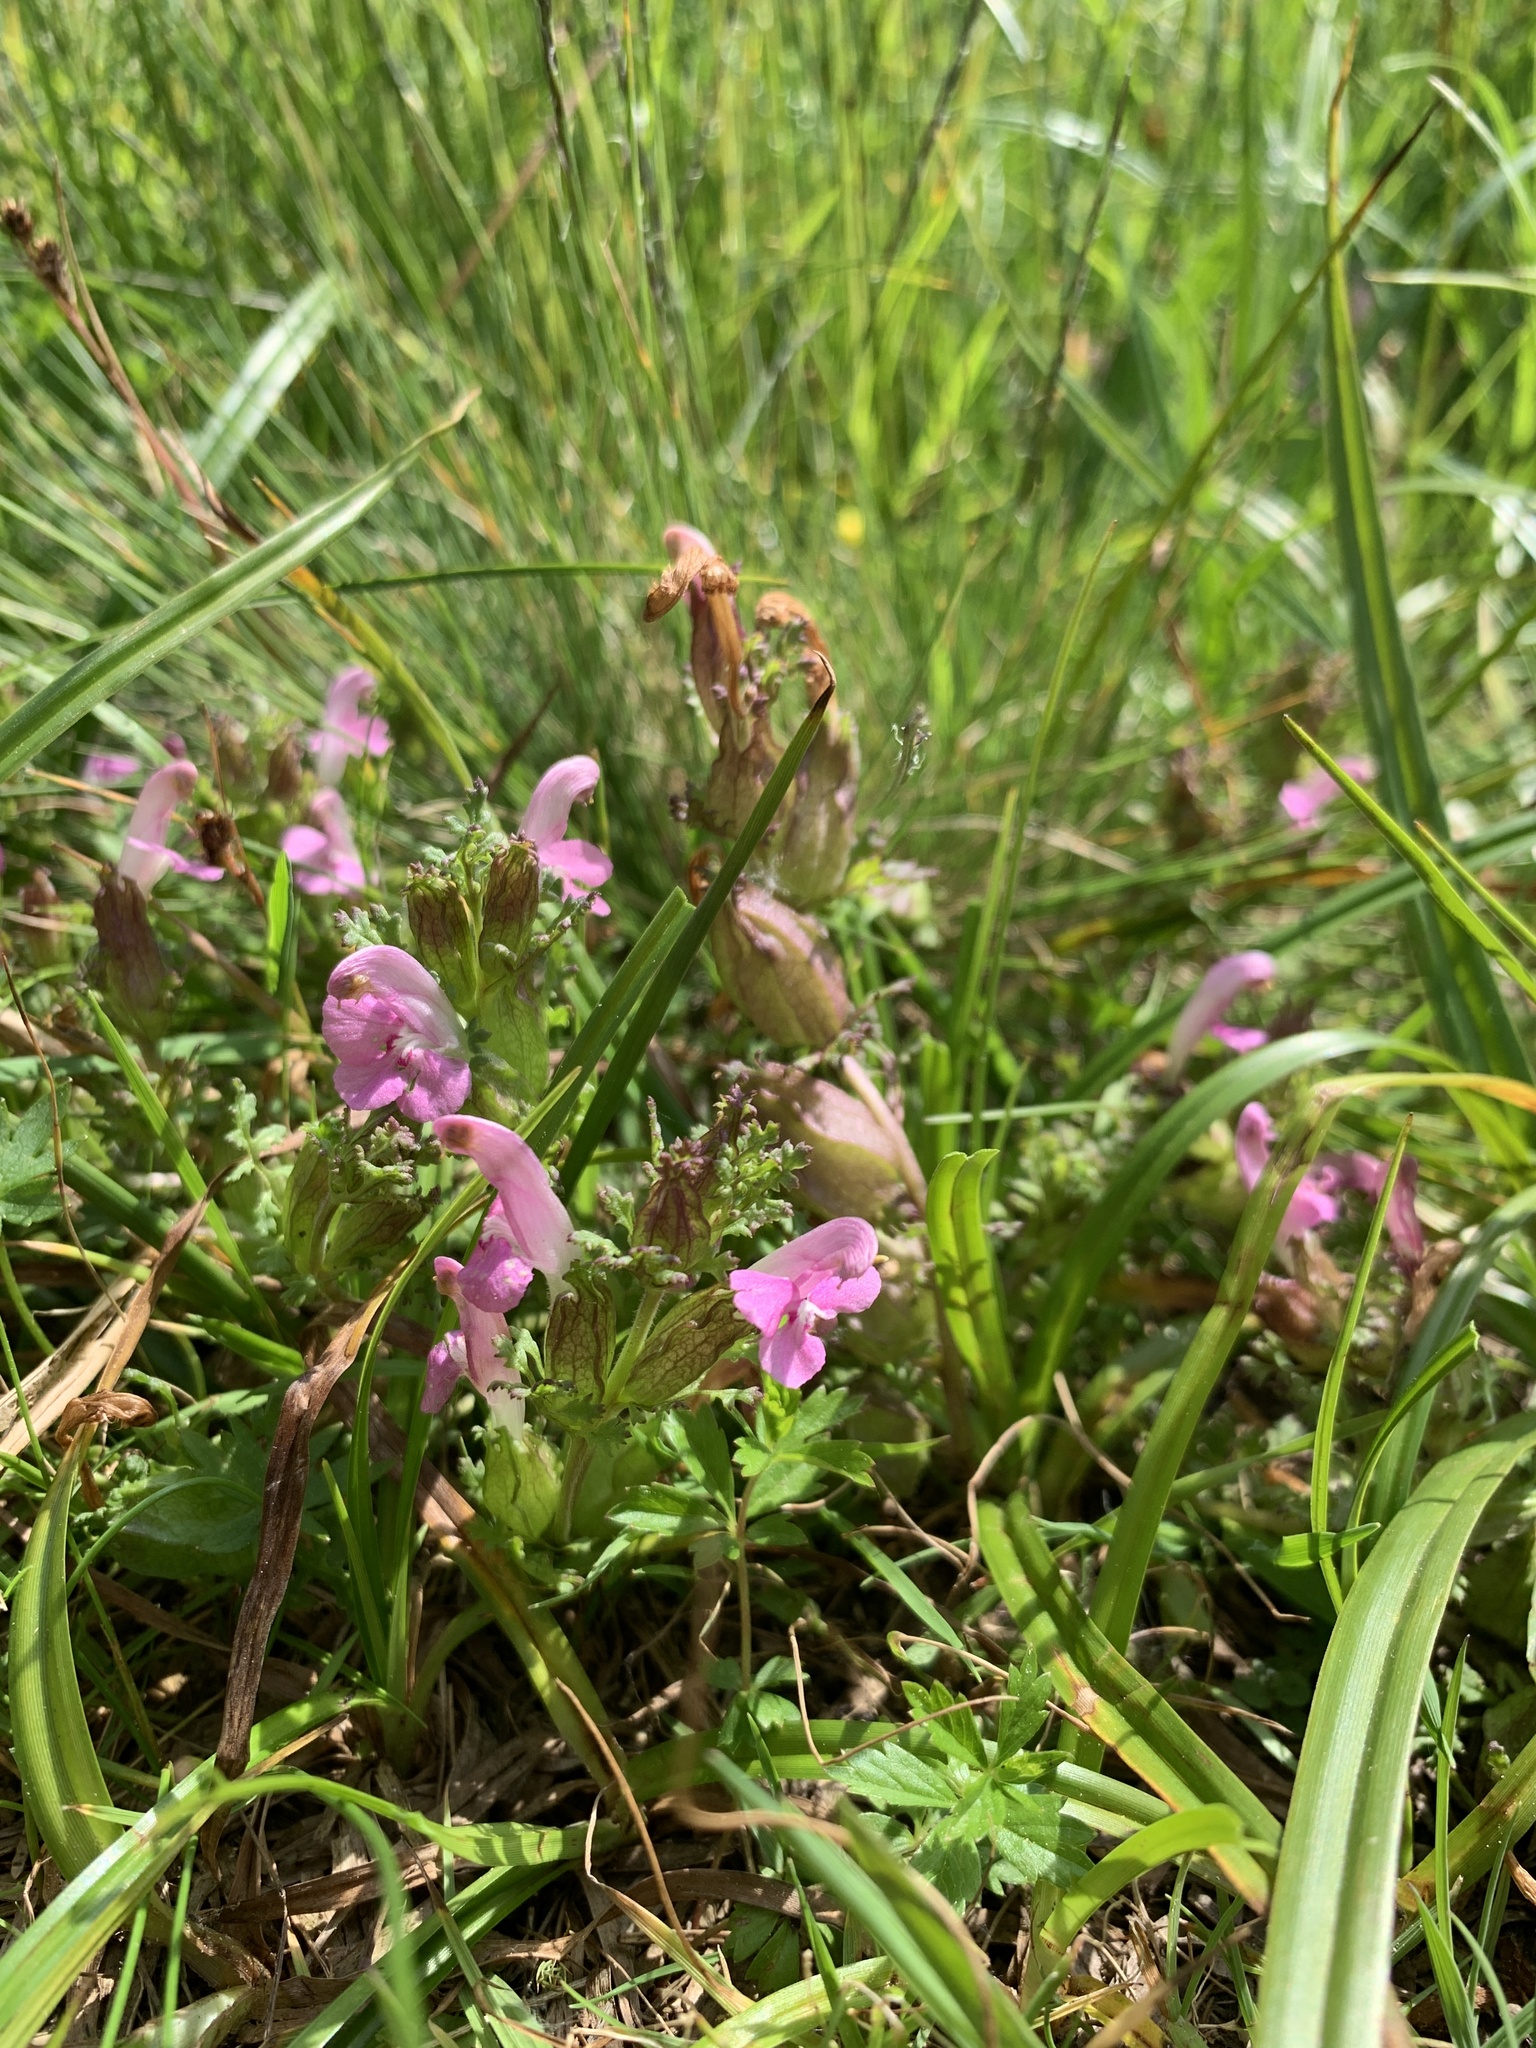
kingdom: Plantae
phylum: Tracheophyta
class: Magnoliopsida
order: Lamiales
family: Orobanchaceae
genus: Pedicularis
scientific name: Pedicularis sylvatica
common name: Lousewort
